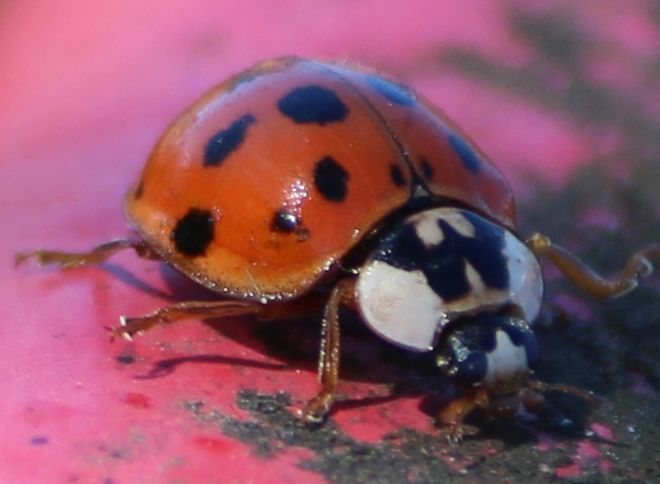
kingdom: Animalia
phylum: Arthropoda
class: Insecta
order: Coleoptera
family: Coccinellidae
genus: Harmonia
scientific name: Harmonia axyridis
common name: Harlequin ladybird
